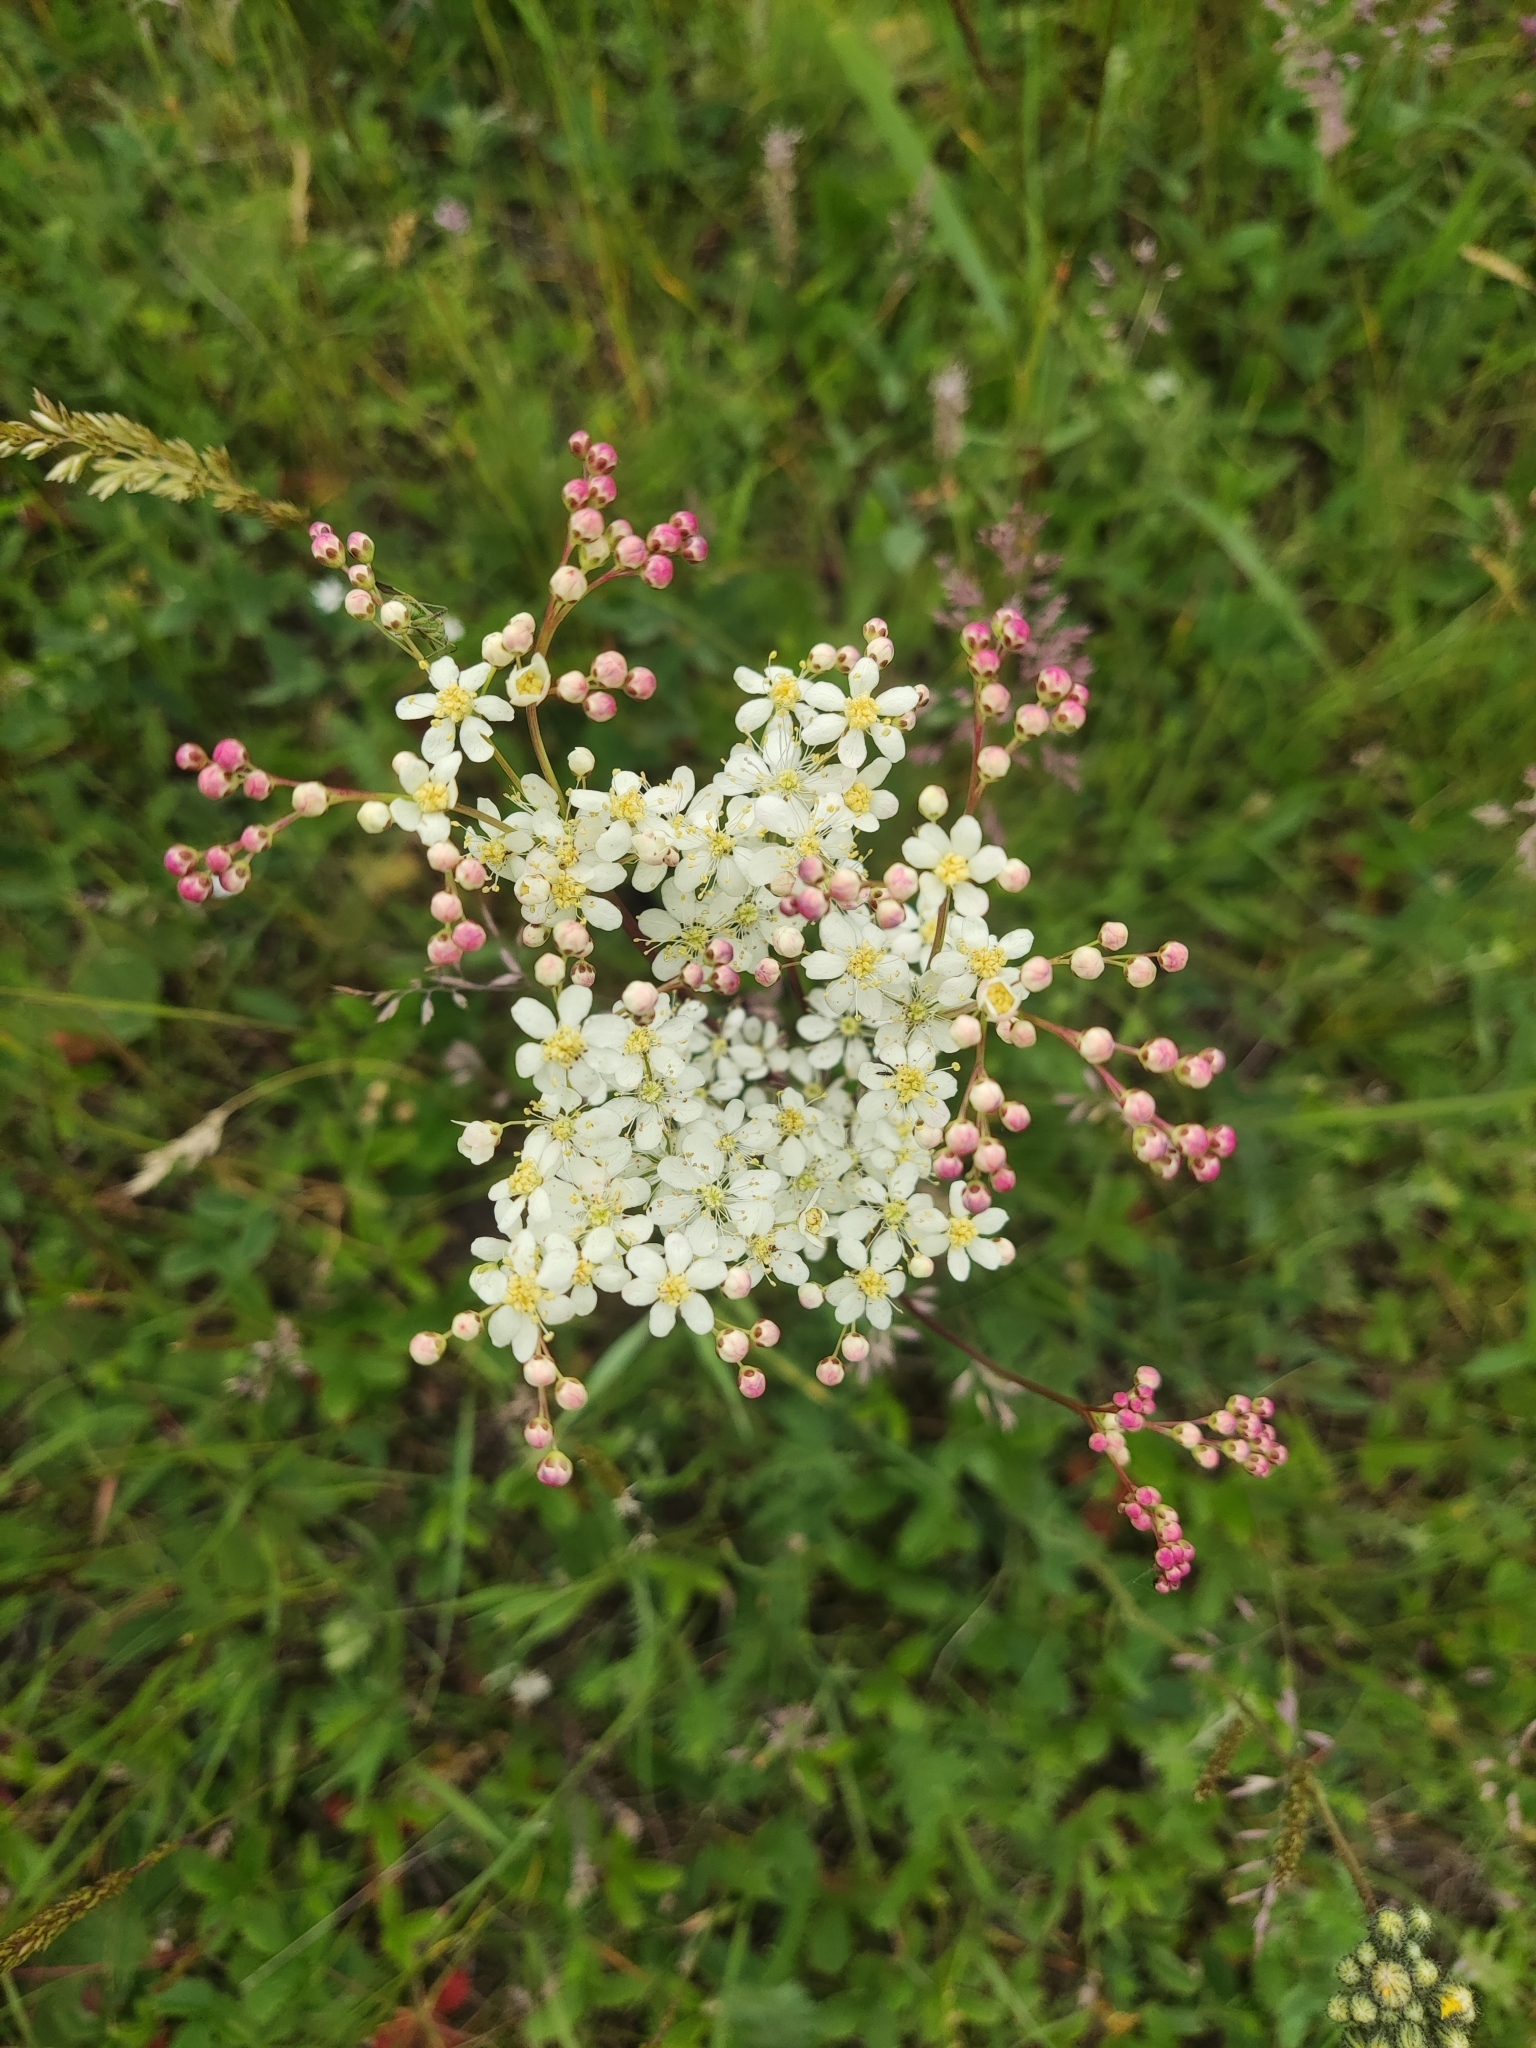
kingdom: Plantae
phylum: Tracheophyta
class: Magnoliopsida
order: Rosales
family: Rosaceae
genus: Filipendula
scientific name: Filipendula vulgaris
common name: Dropwort
